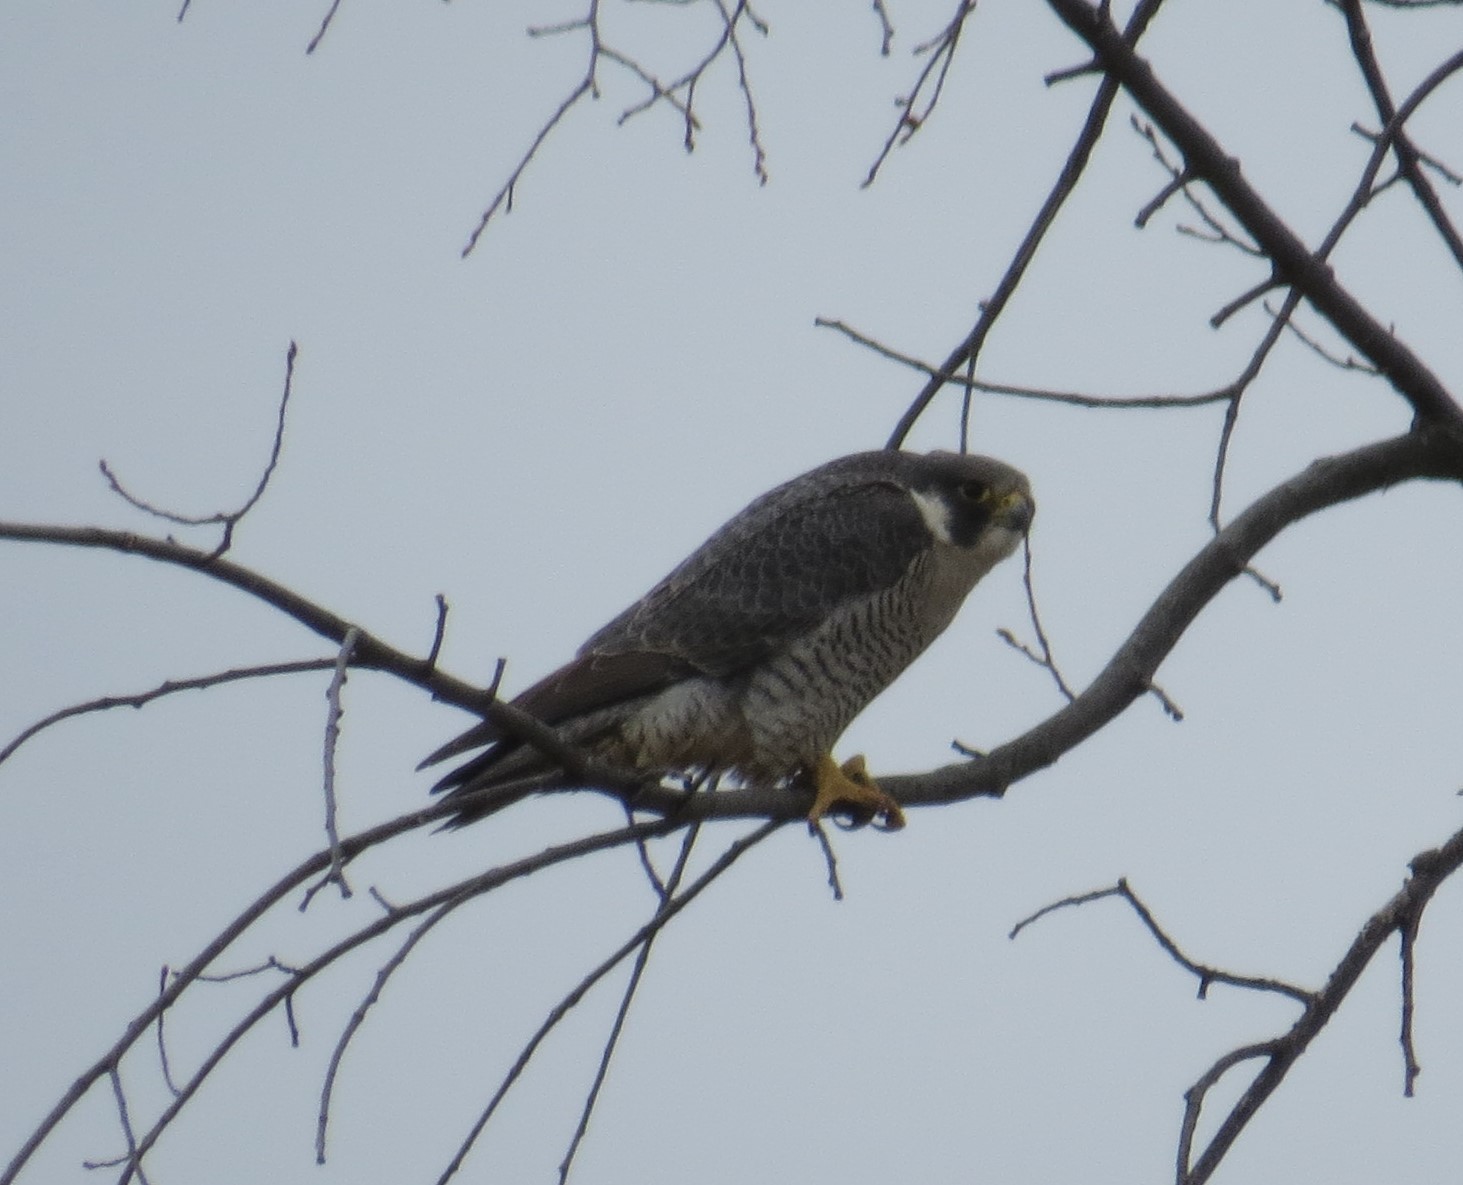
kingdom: Animalia
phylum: Chordata
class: Aves
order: Falconiformes
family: Falconidae
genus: Falco
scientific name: Falco peregrinus
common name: Peregrine falcon
